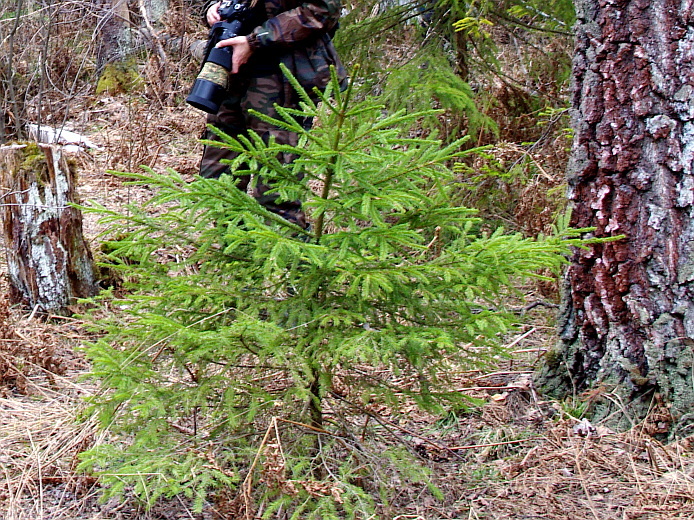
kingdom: Plantae
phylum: Tracheophyta
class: Pinopsida
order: Pinales
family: Pinaceae
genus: Picea
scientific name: Picea abies
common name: Norway spruce
